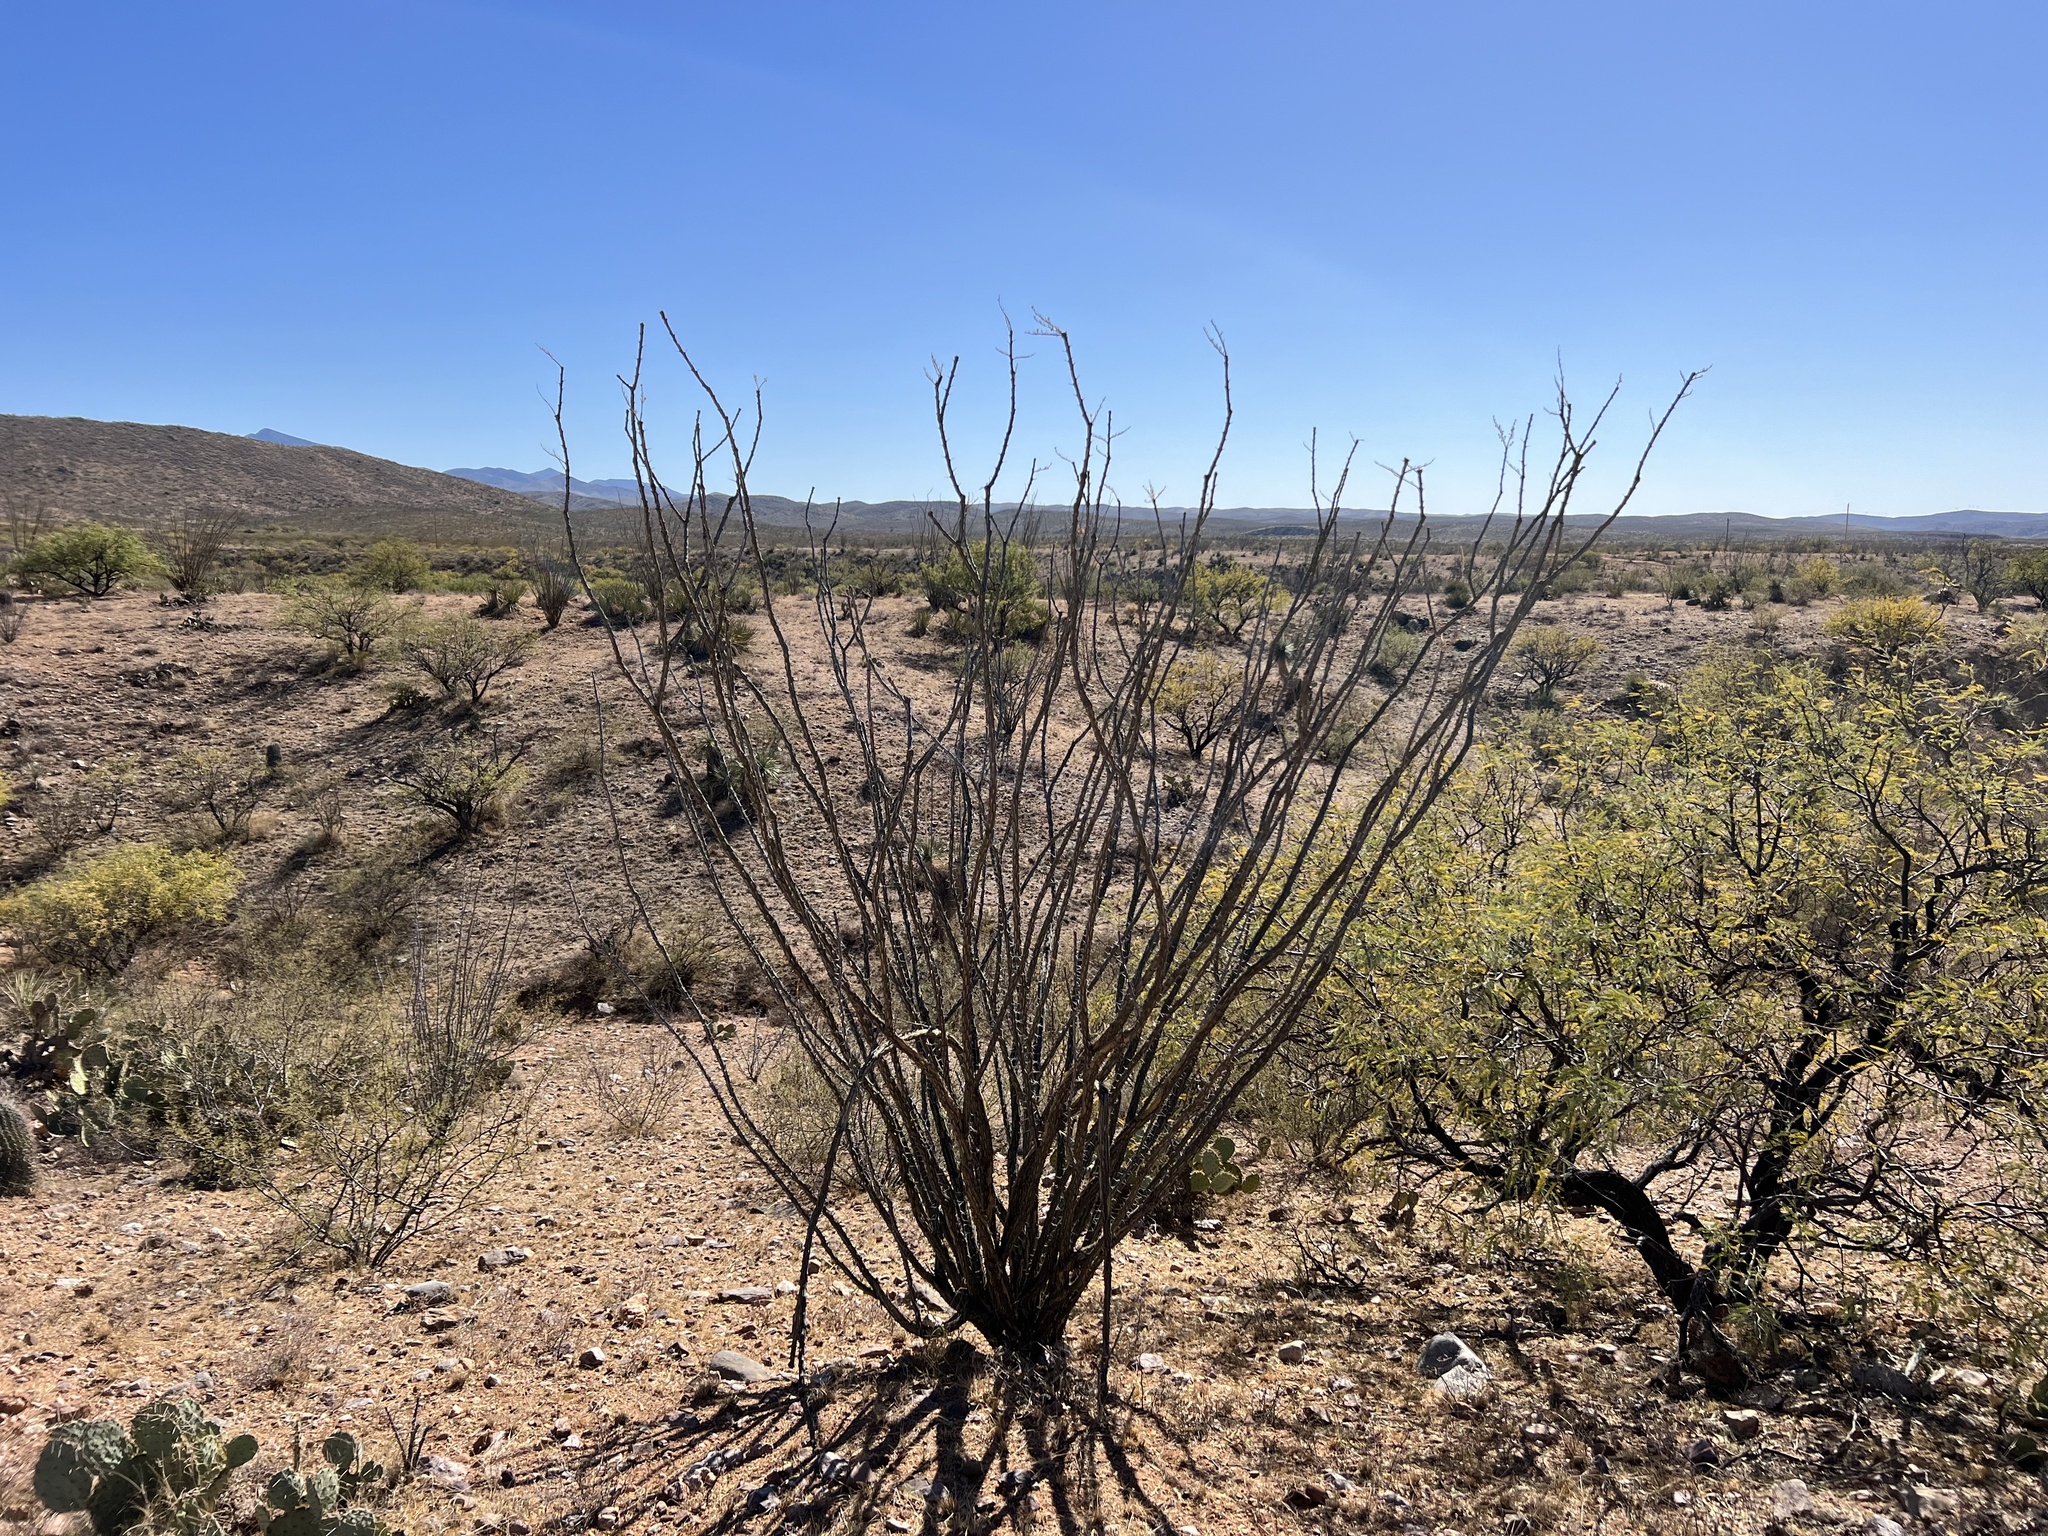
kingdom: Plantae
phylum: Tracheophyta
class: Magnoliopsida
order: Ericales
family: Fouquieriaceae
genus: Fouquieria
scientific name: Fouquieria splendens
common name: Vine-cactus
